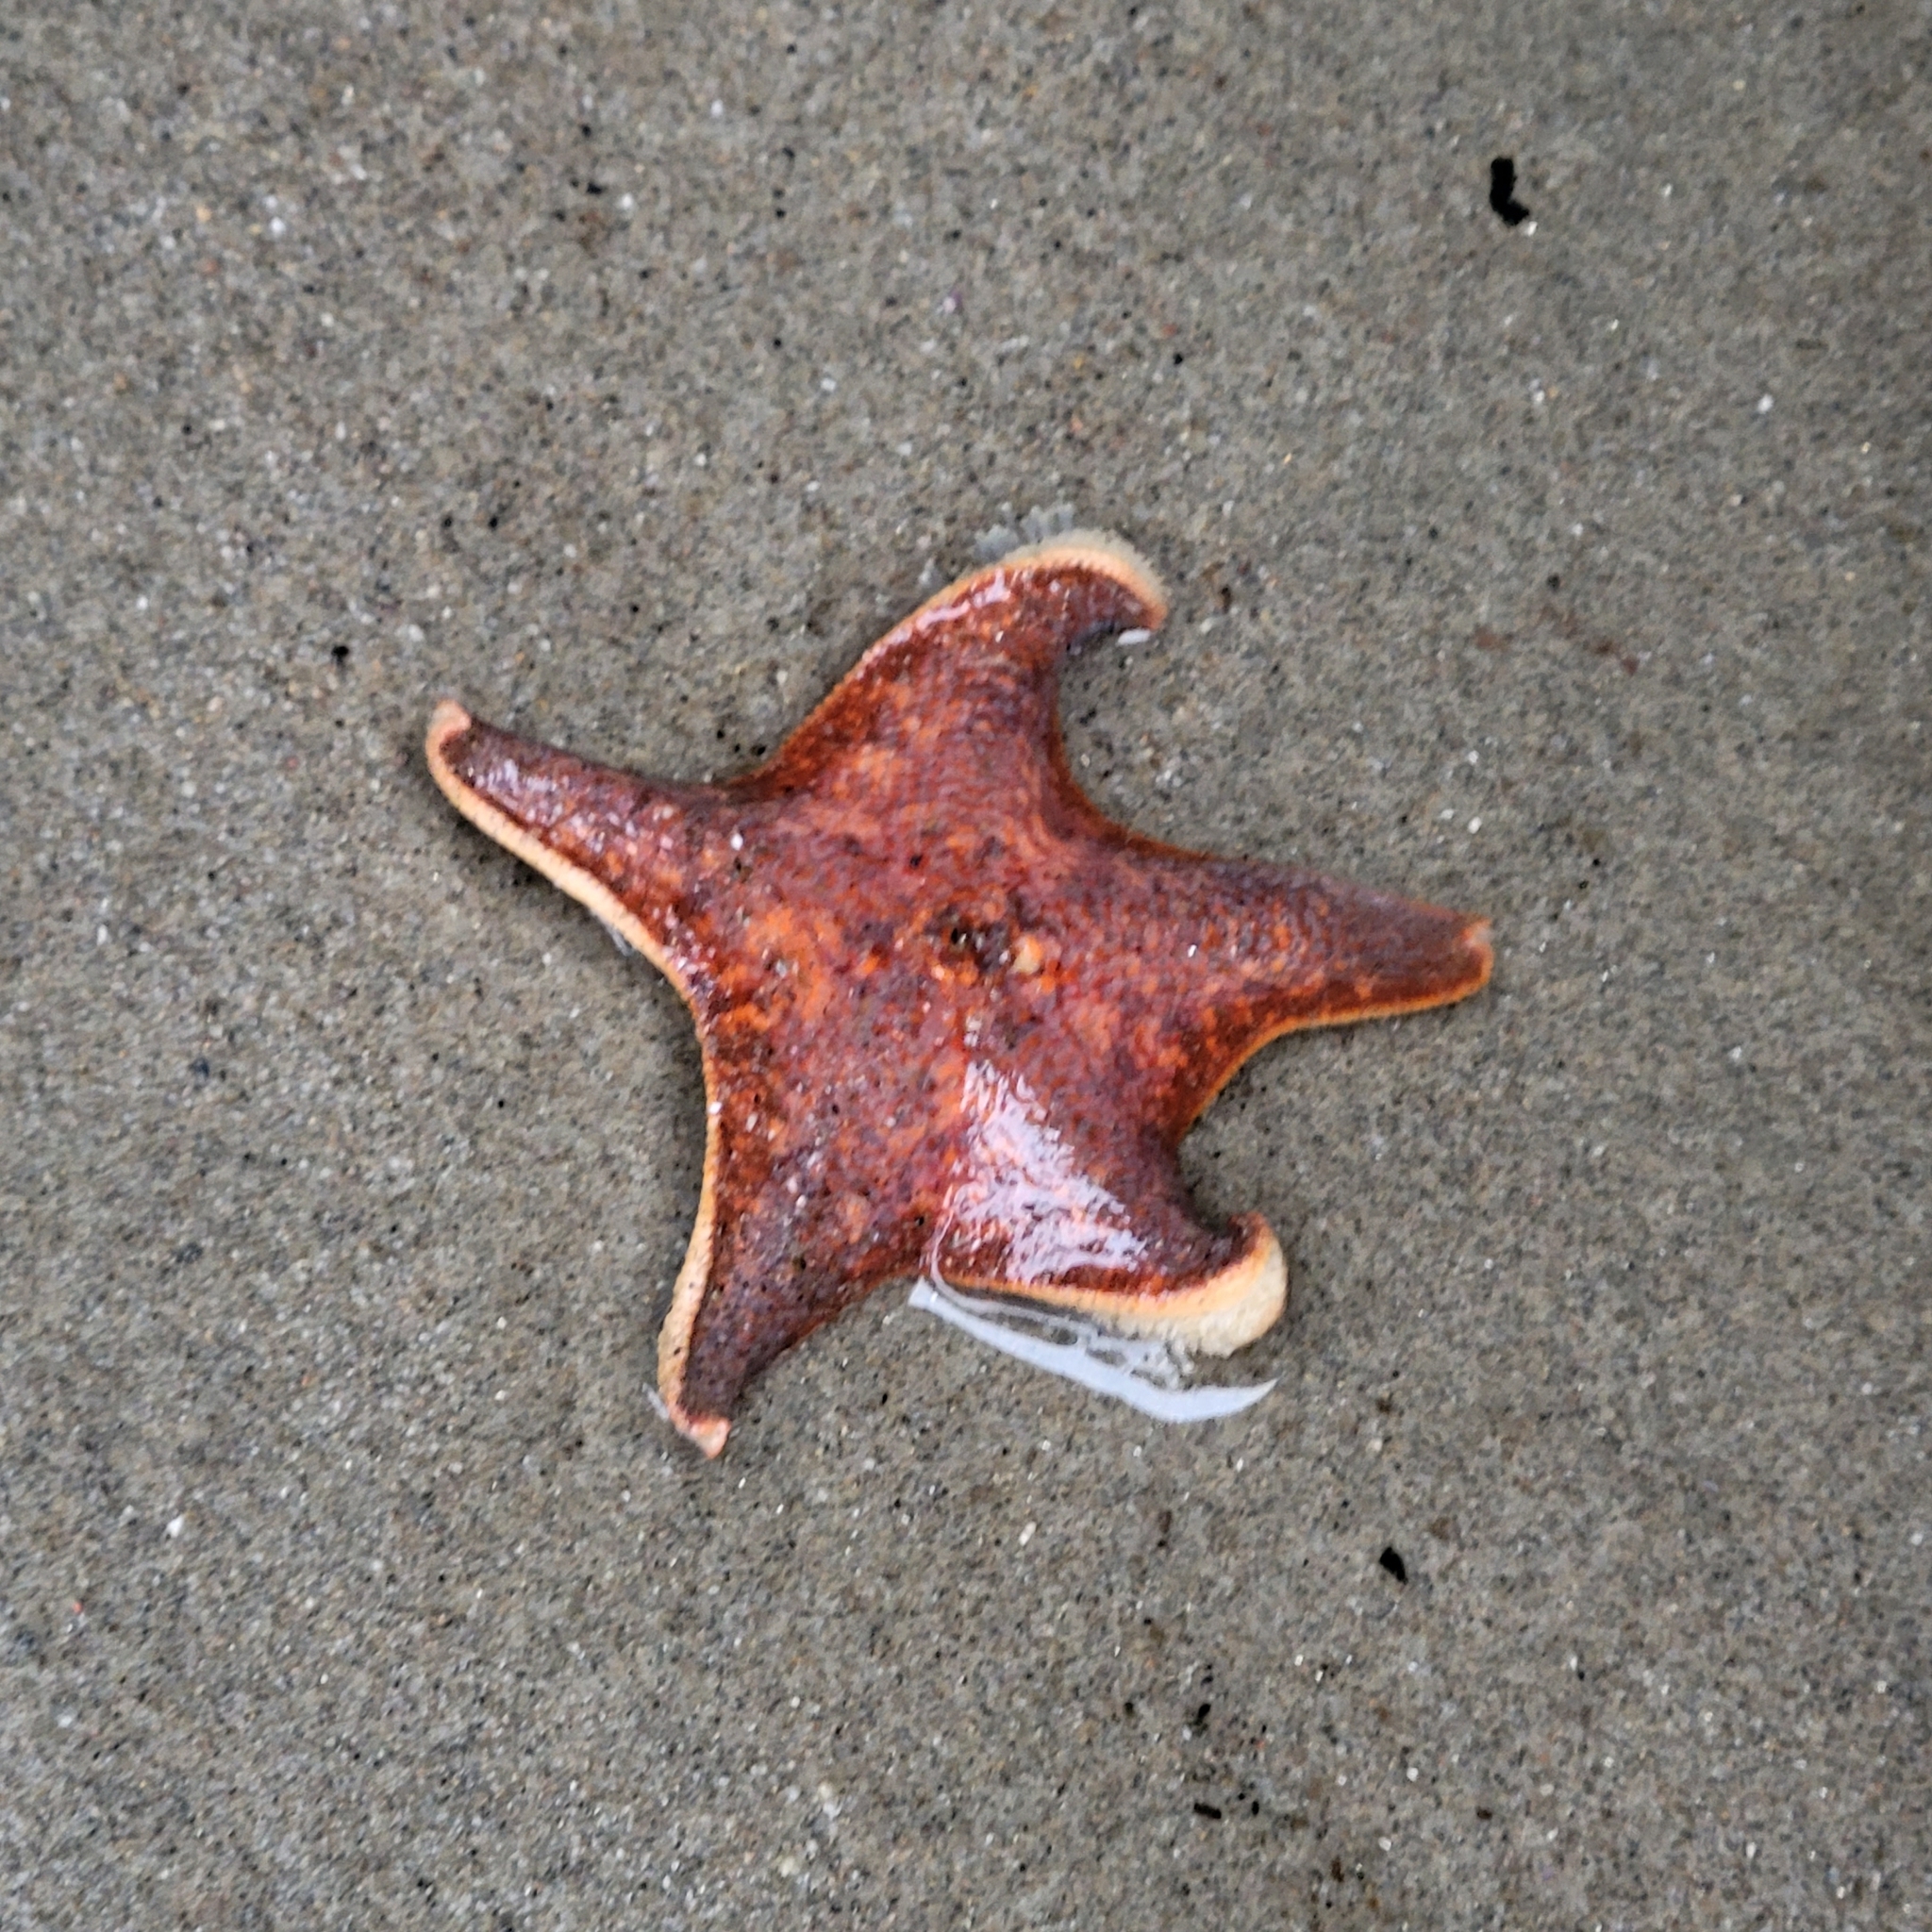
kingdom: Animalia
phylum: Echinodermata
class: Asteroidea
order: Valvatida
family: Asterinidae
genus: Patiria
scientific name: Patiria miniata
